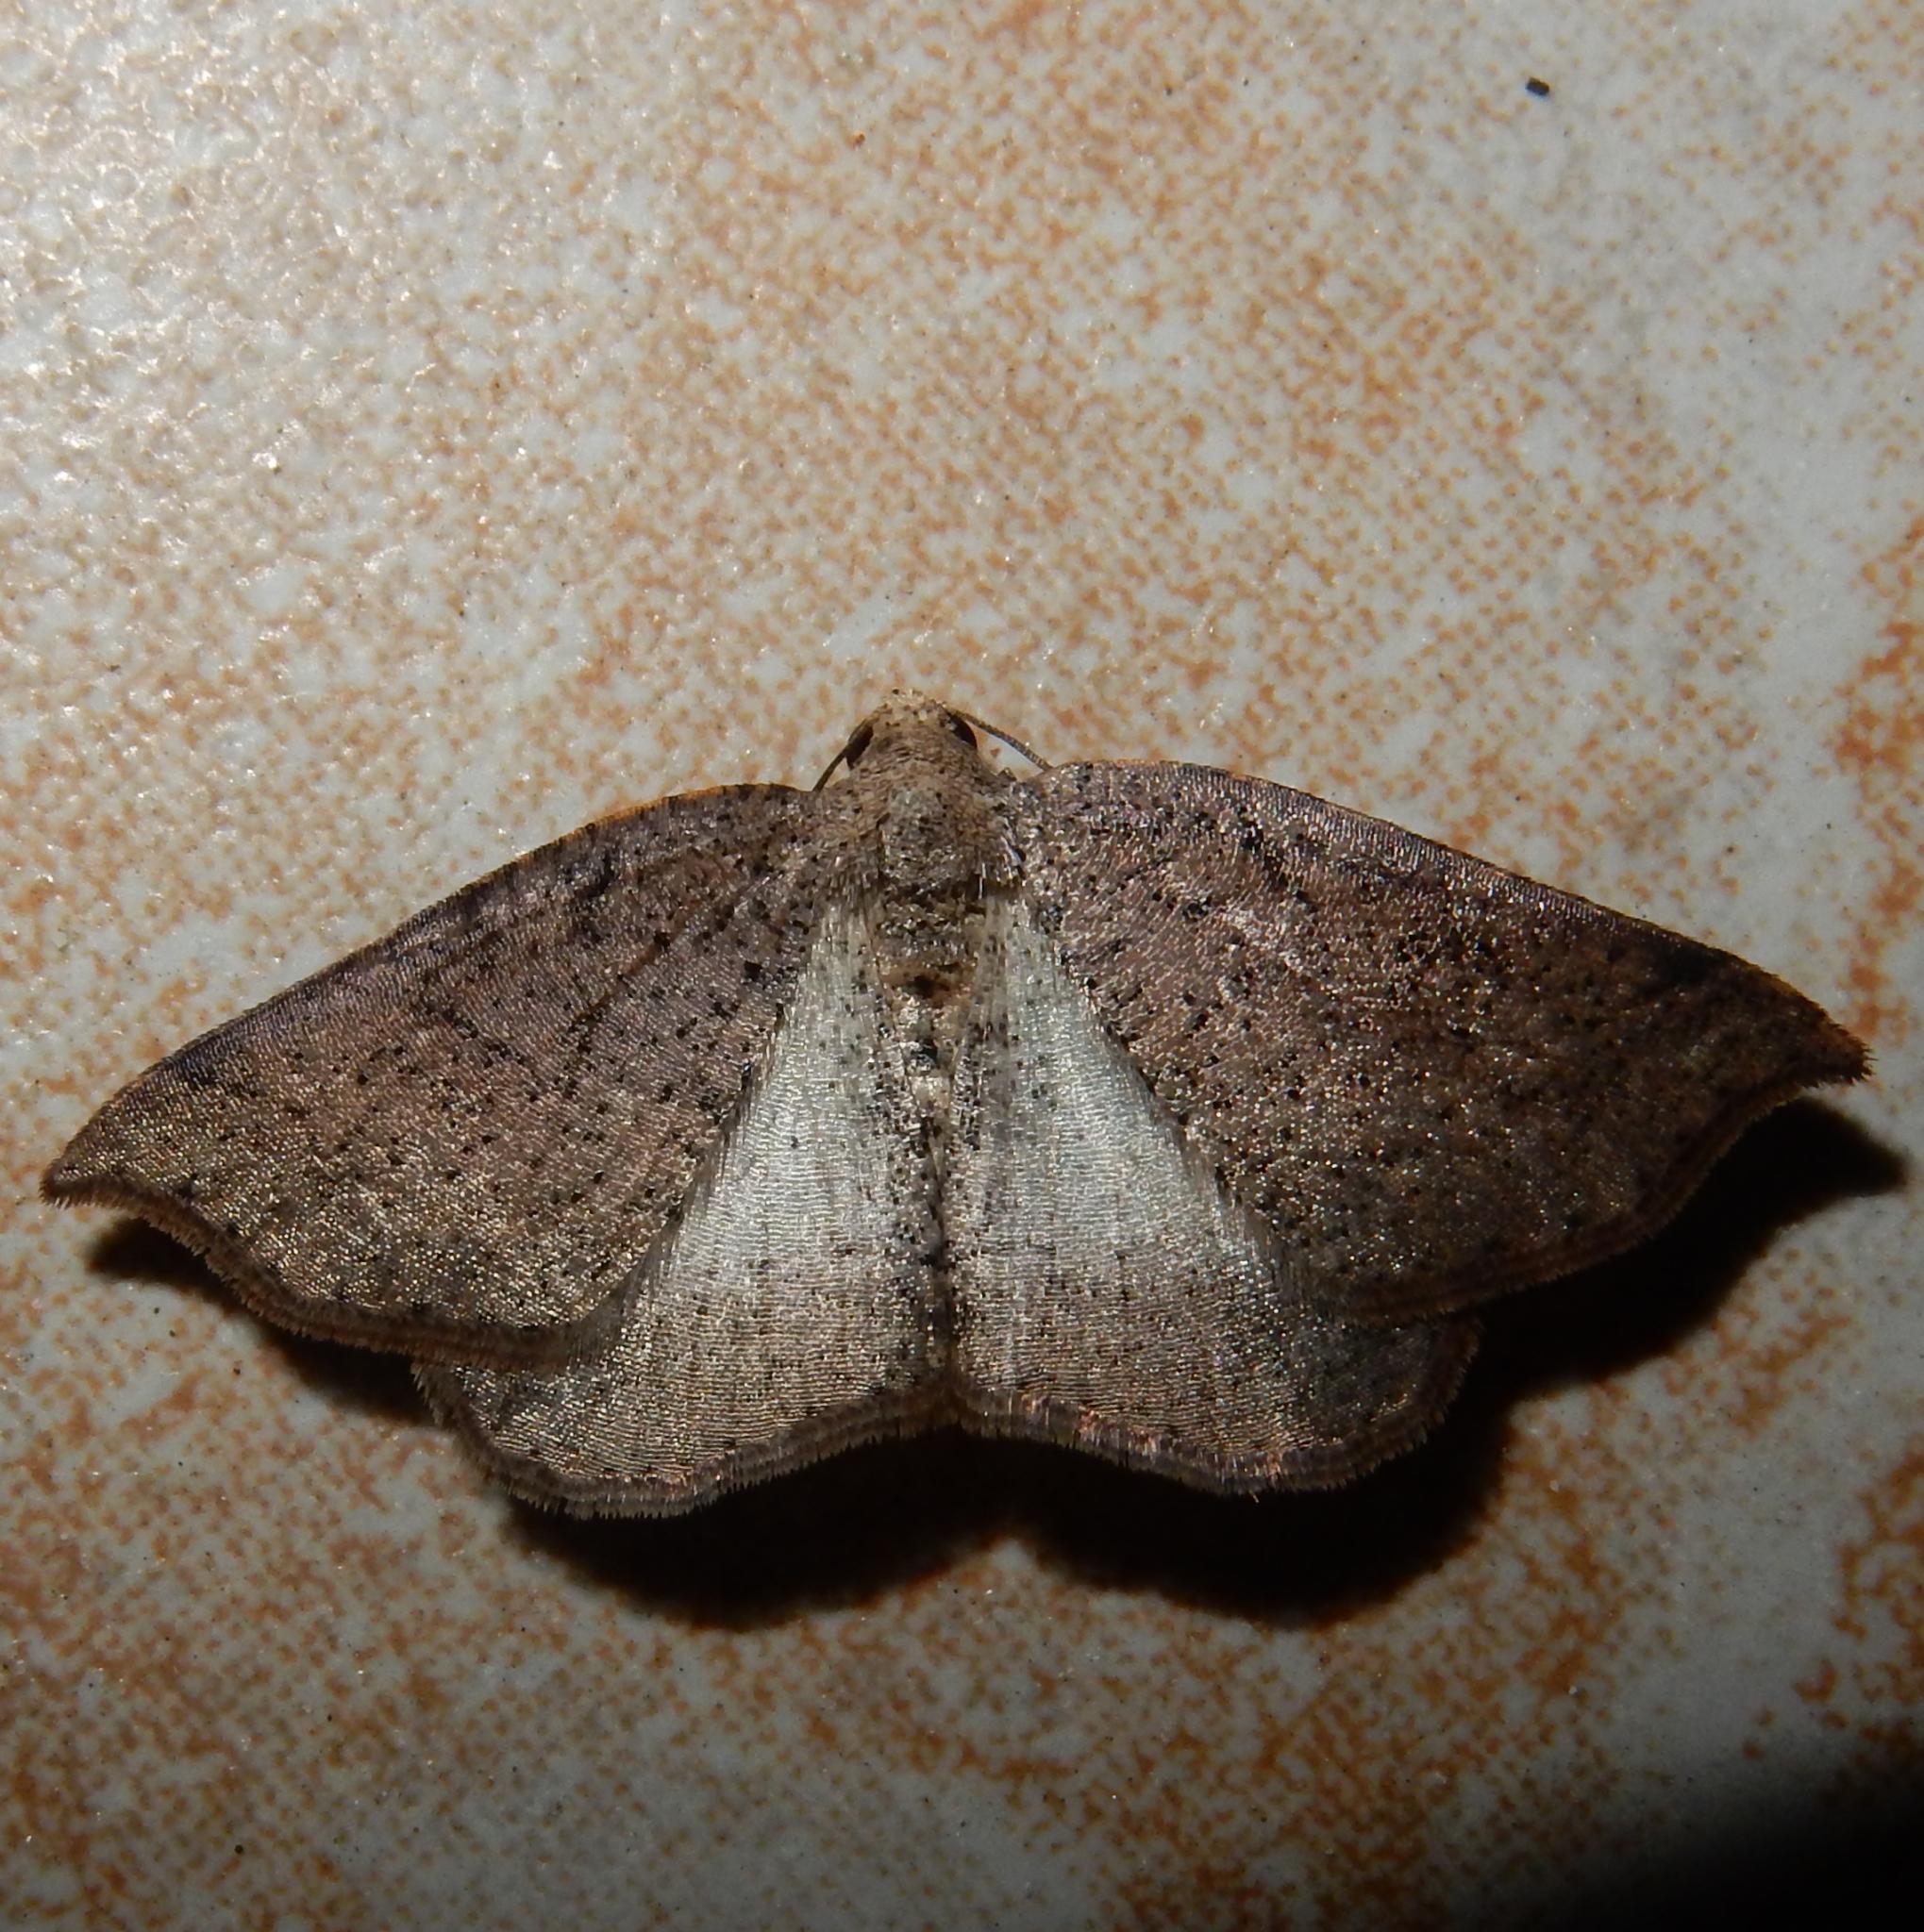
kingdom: Animalia
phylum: Arthropoda
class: Insecta
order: Lepidoptera
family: Geometridae
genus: Pareclipsis
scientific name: Pareclipsis oxyptera
